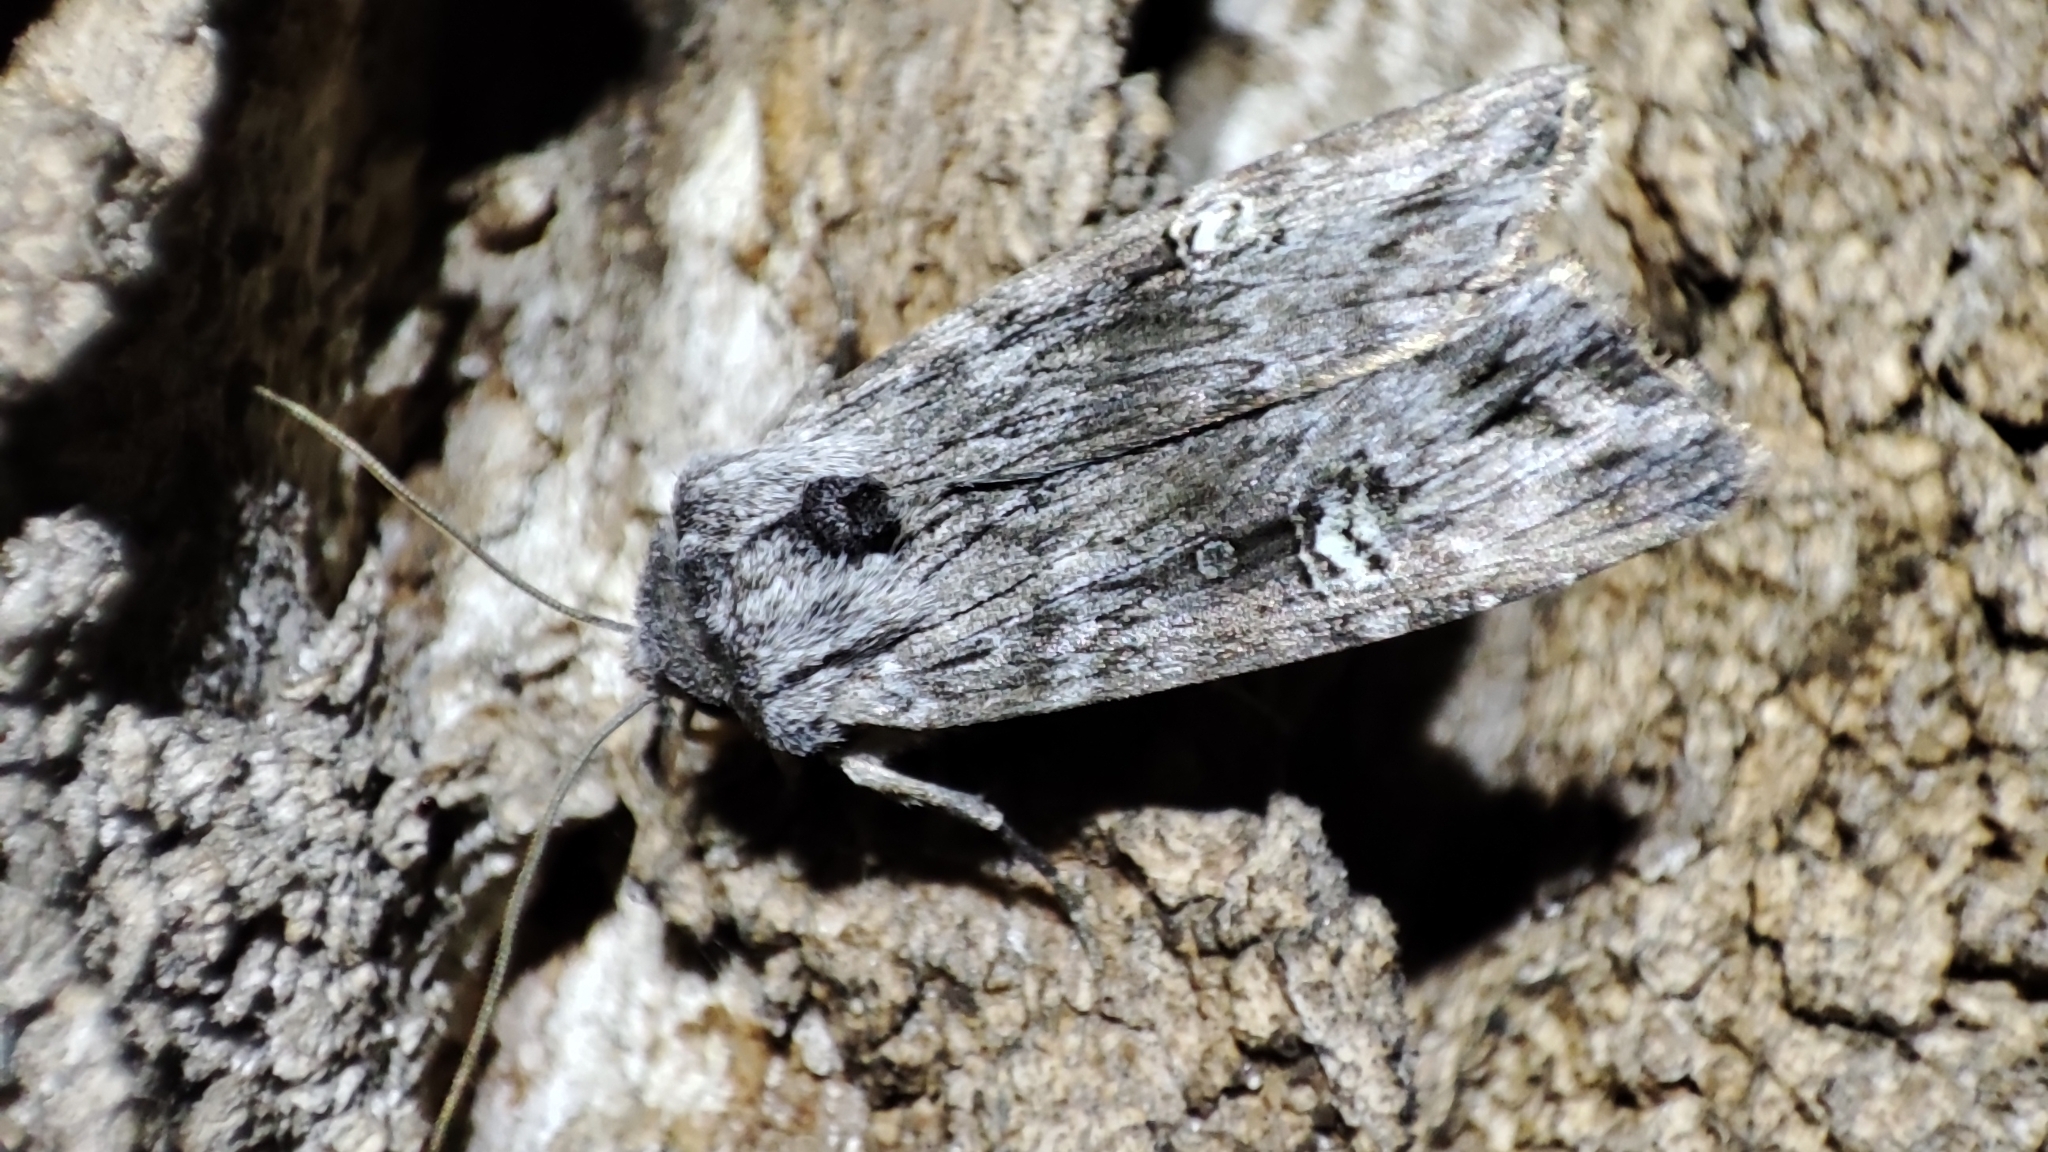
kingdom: Animalia
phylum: Arthropoda
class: Insecta
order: Lepidoptera
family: Noctuidae
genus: Xylena
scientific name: Xylena solidaginis
